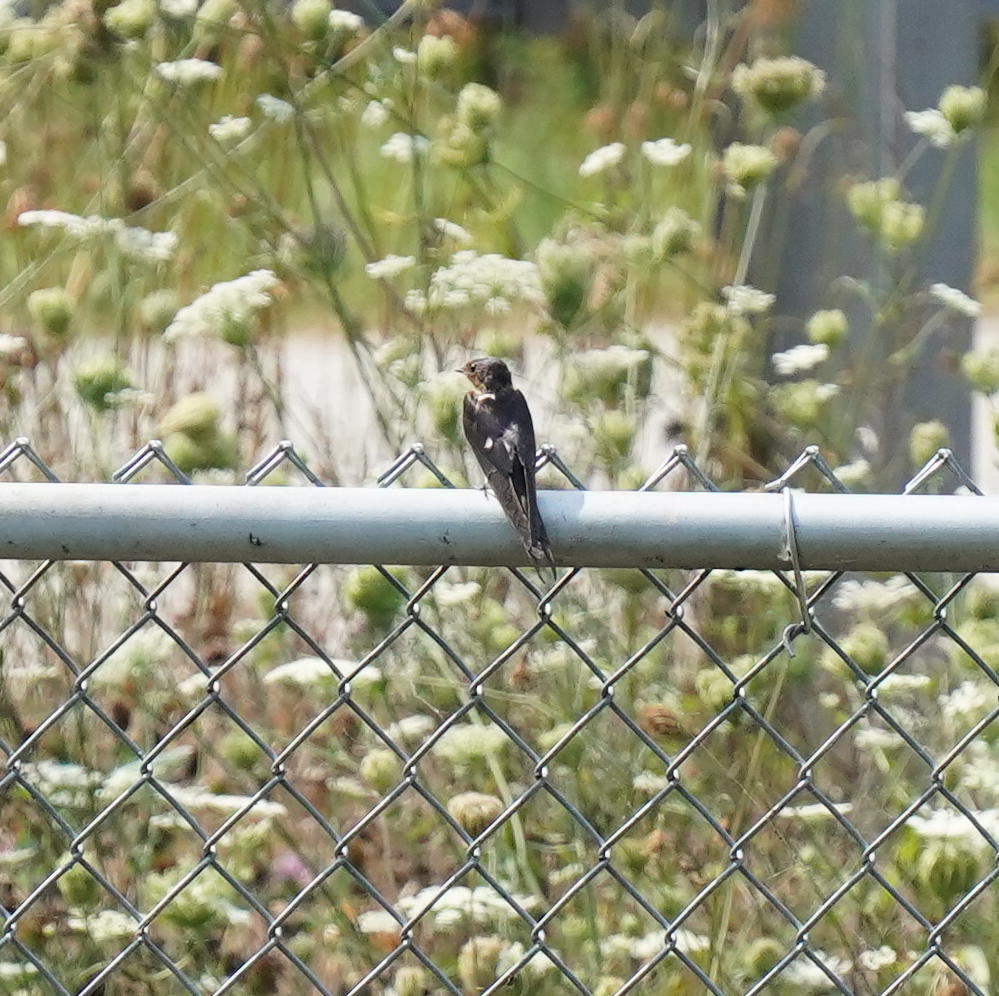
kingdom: Animalia
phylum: Chordata
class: Aves
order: Passeriformes
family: Hirundinidae
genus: Hirundo
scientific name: Hirundo rustica
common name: Barn swallow
